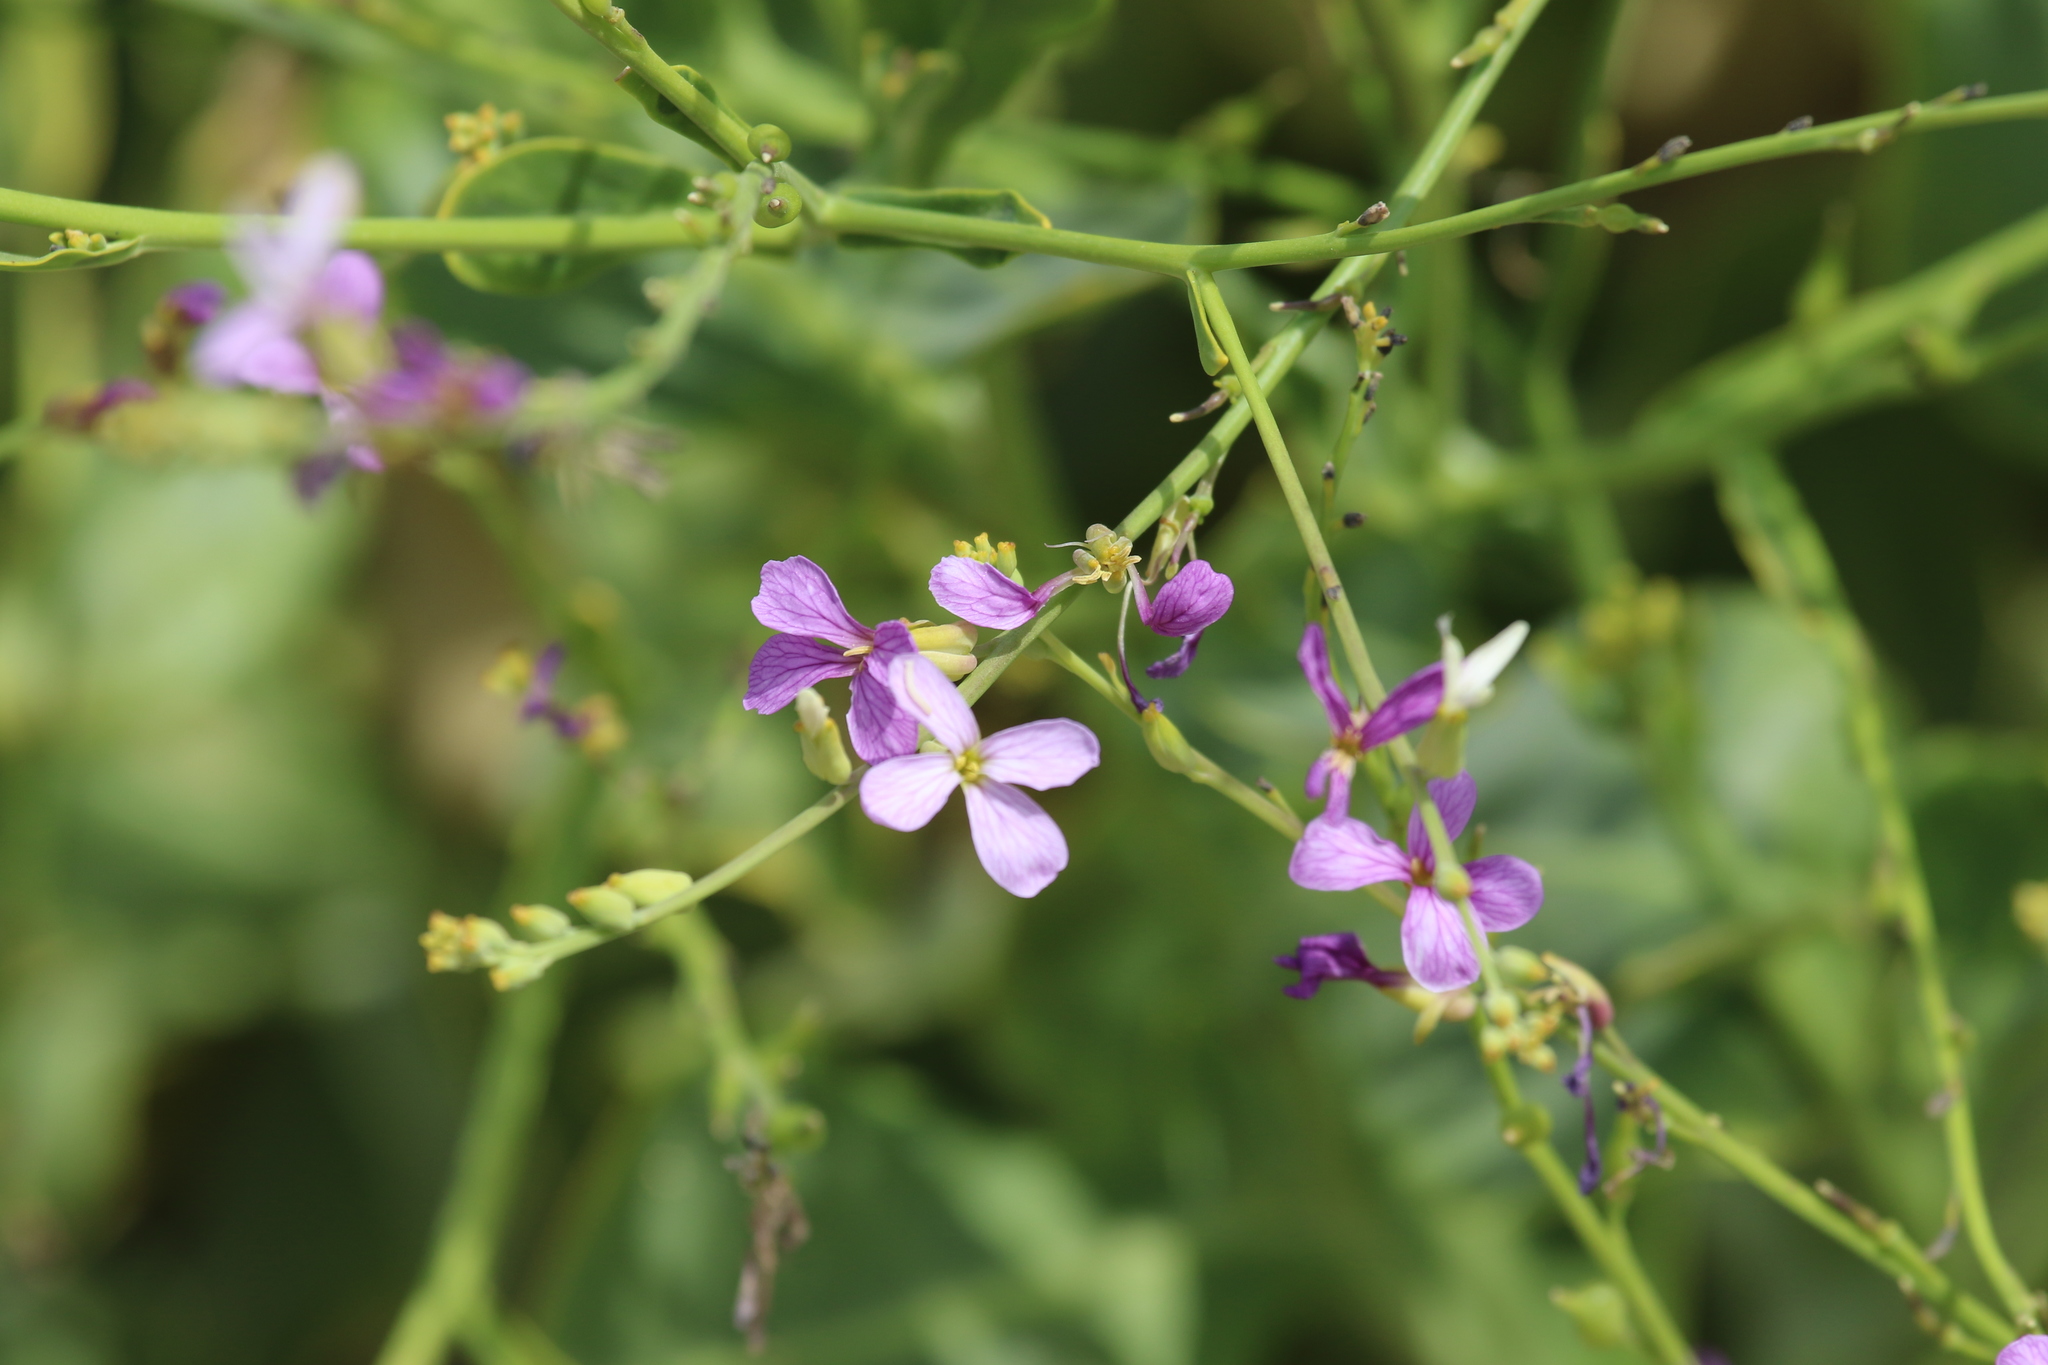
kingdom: Plantae
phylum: Tracheophyta
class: Magnoliopsida
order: Brassicales
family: Brassicaceae
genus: Physorhynchus
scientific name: Physorhynchus chamaerapistrum
